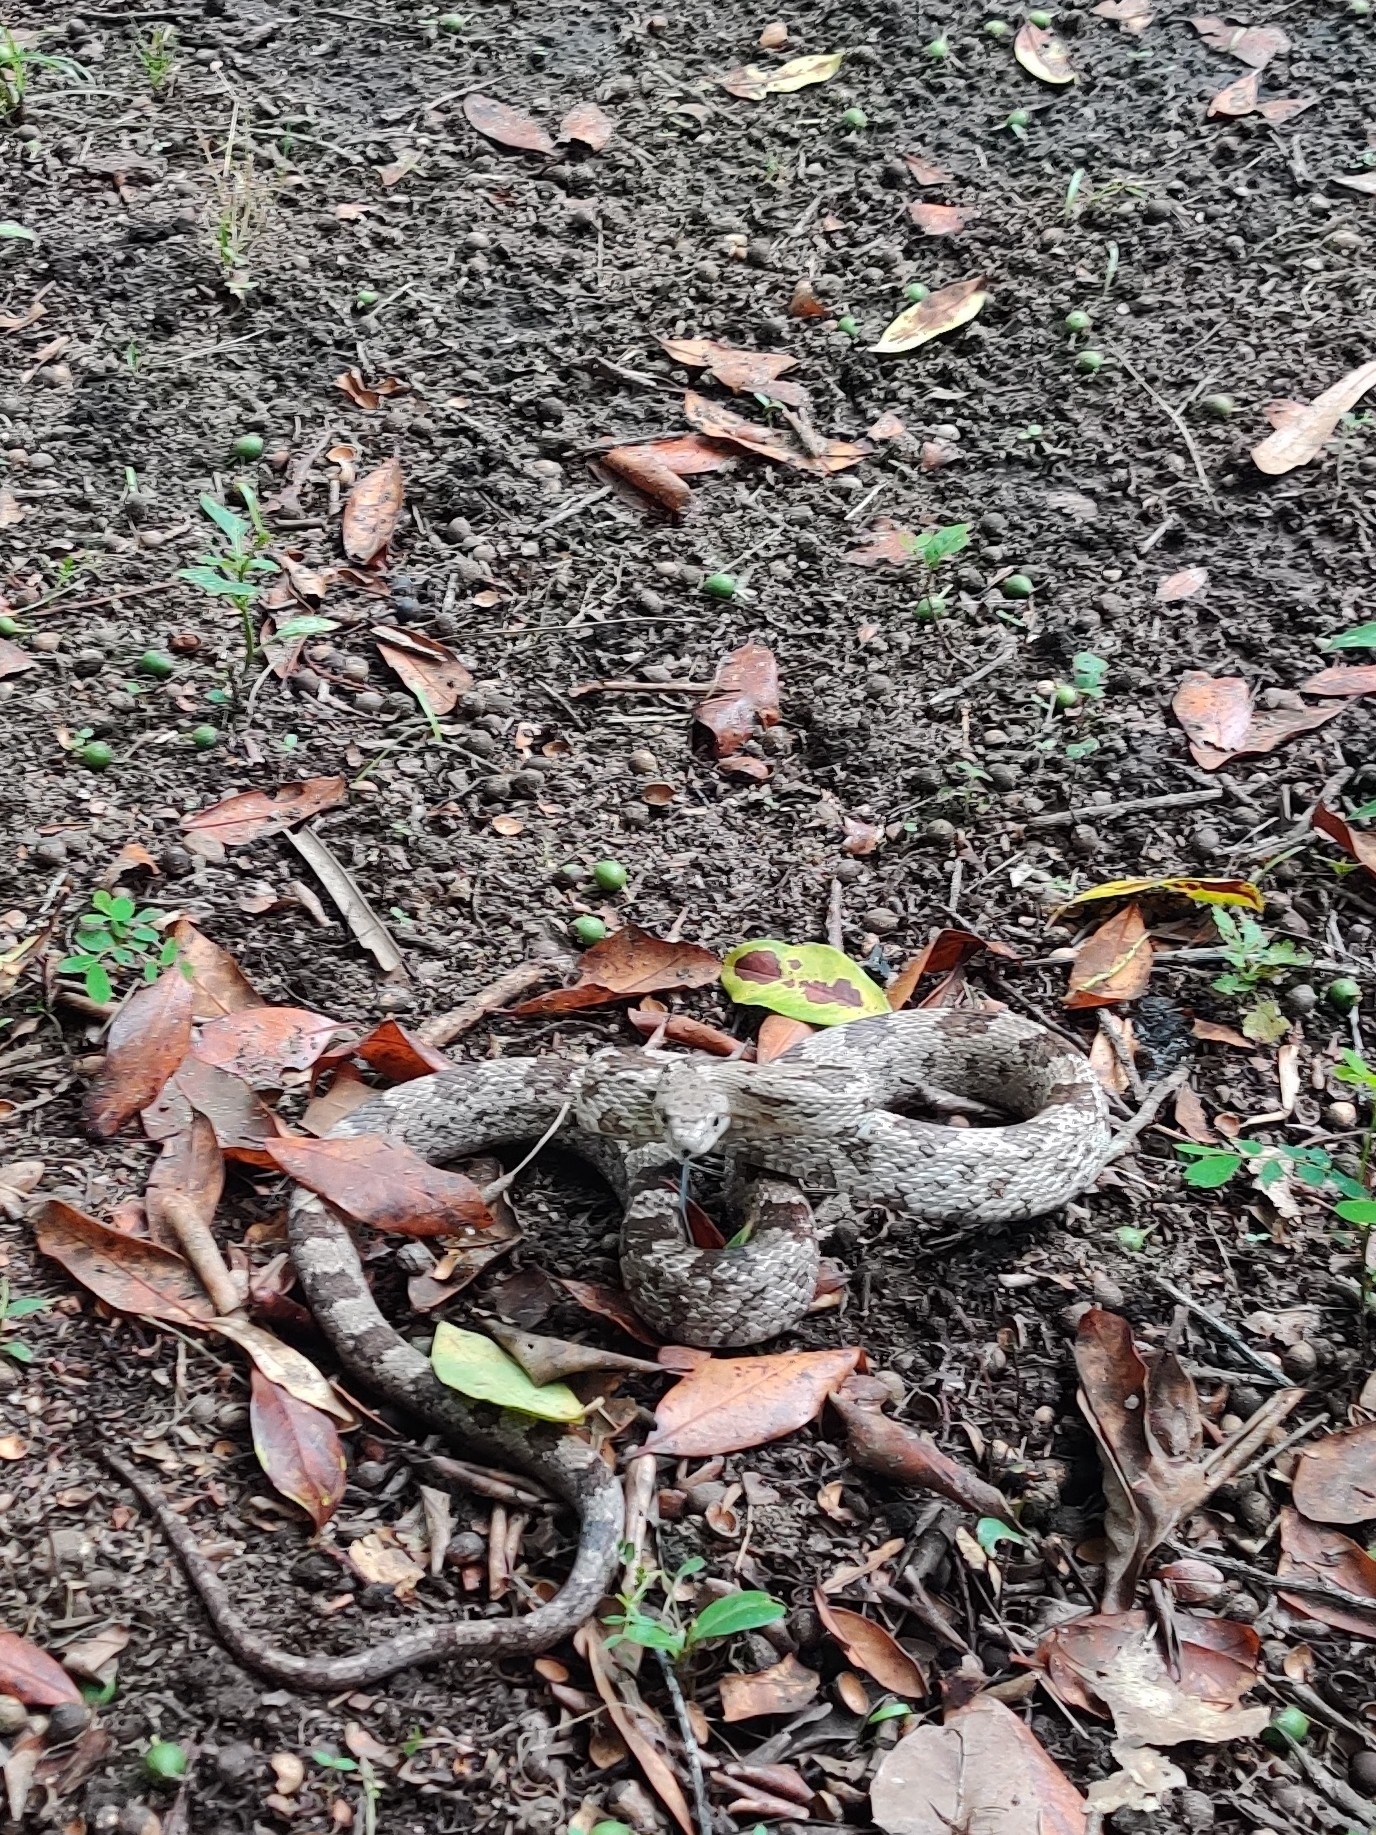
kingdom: Animalia
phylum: Chordata
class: Squamata
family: Colubridae
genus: Pantherophis
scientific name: Pantherophis spiloides
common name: Gray rat snake
